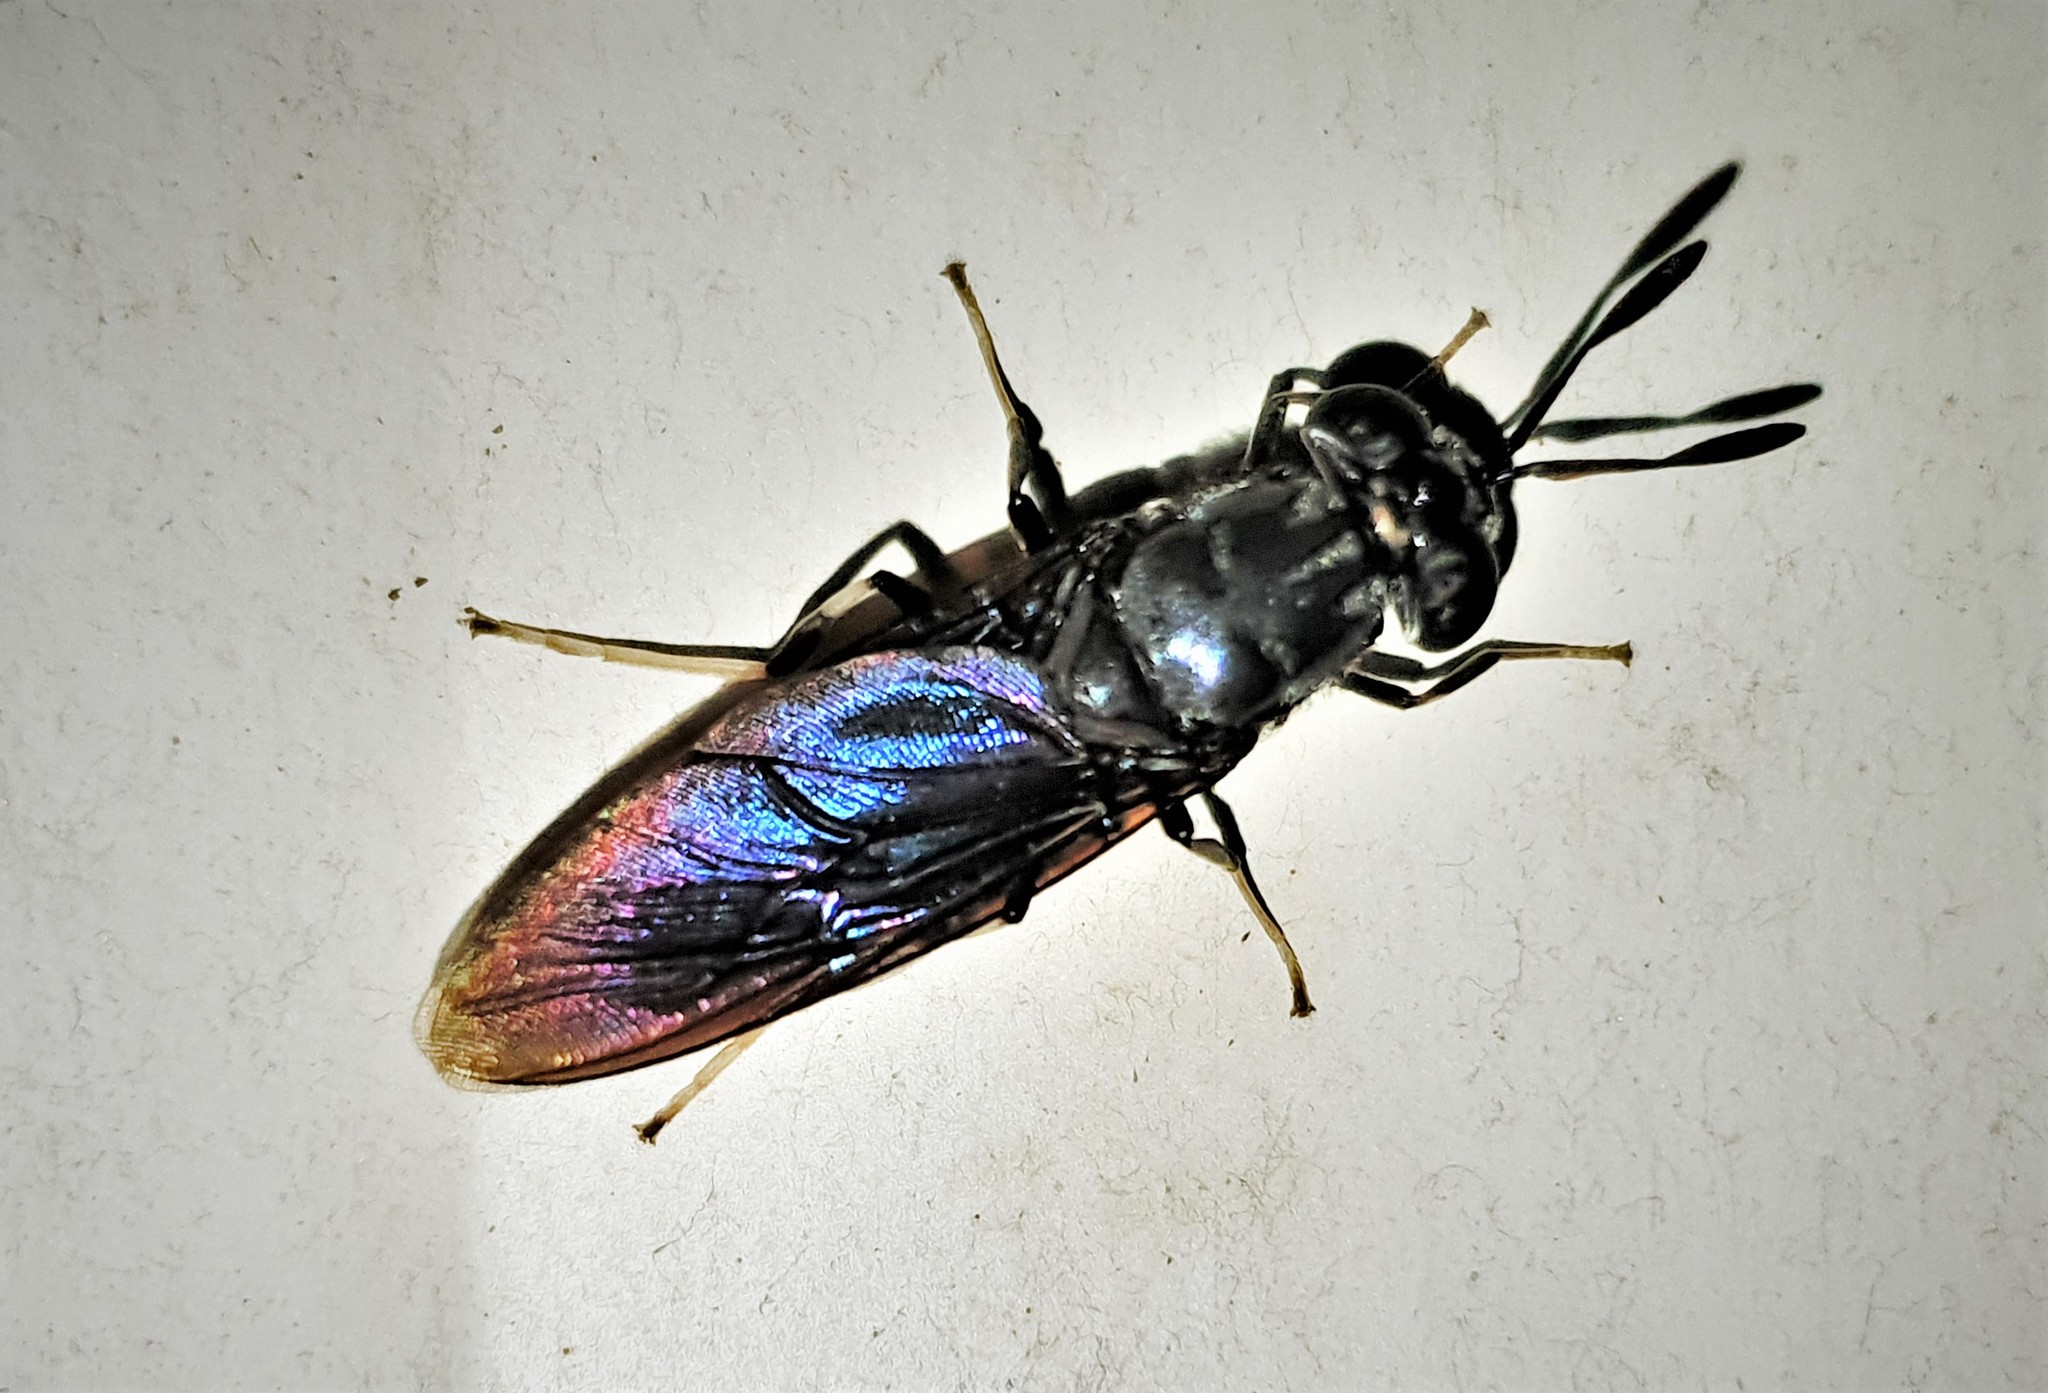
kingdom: Animalia
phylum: Arthropoda
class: Insecta
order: Diptera
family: Stratiomyidae
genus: Hermetia
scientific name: Hermetia illucens
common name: Black soldier fly
